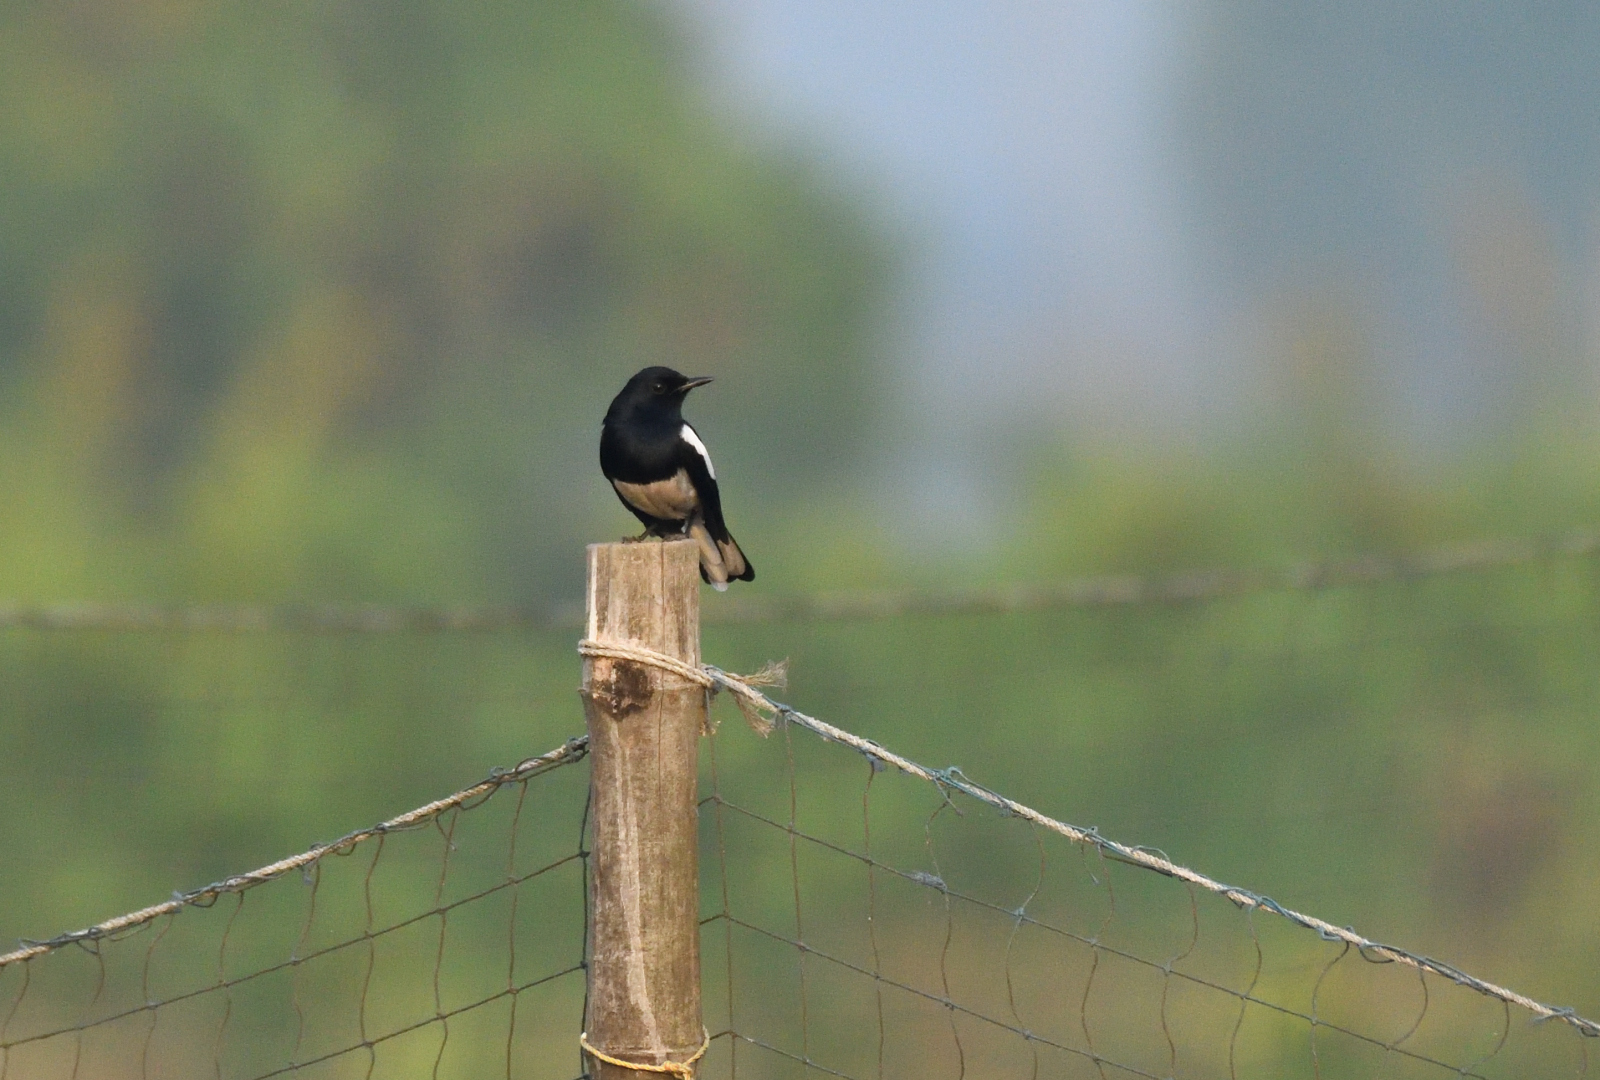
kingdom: Animalia
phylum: Chordata
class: Aves
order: Passeriformes
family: Muscicapidae
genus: Copsychus
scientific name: Copsychus saularis
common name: Oriental magpie-robin
